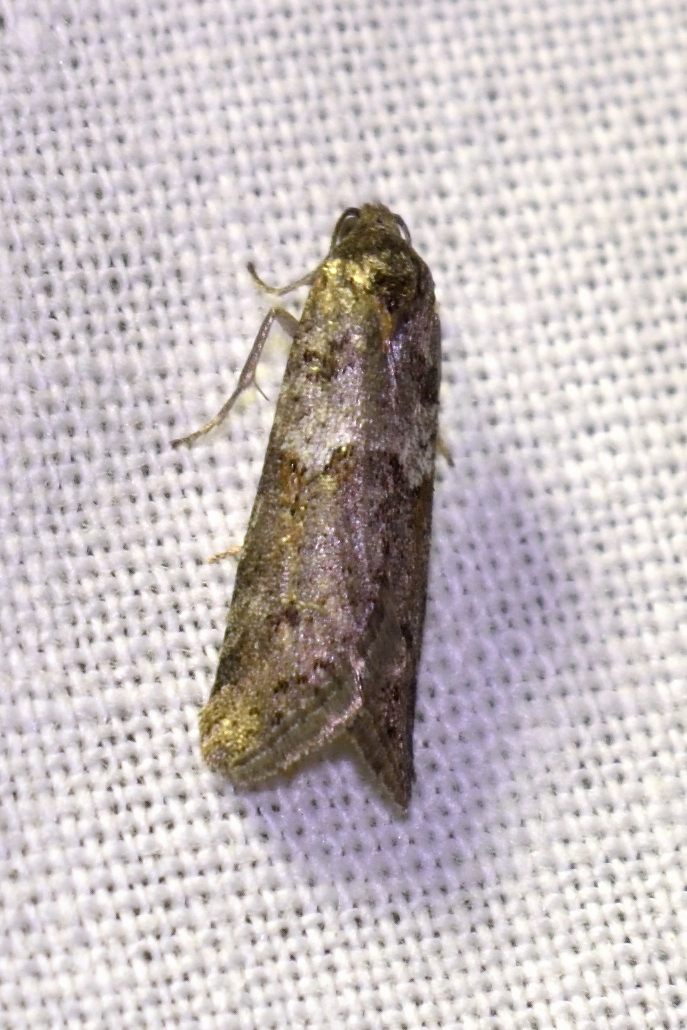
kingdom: Animalia
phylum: Arthropoda
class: Insecta
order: Lepidoptera
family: Tortricidae
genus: Tortricodes
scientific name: Tortricodes alternella
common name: Winter shade
